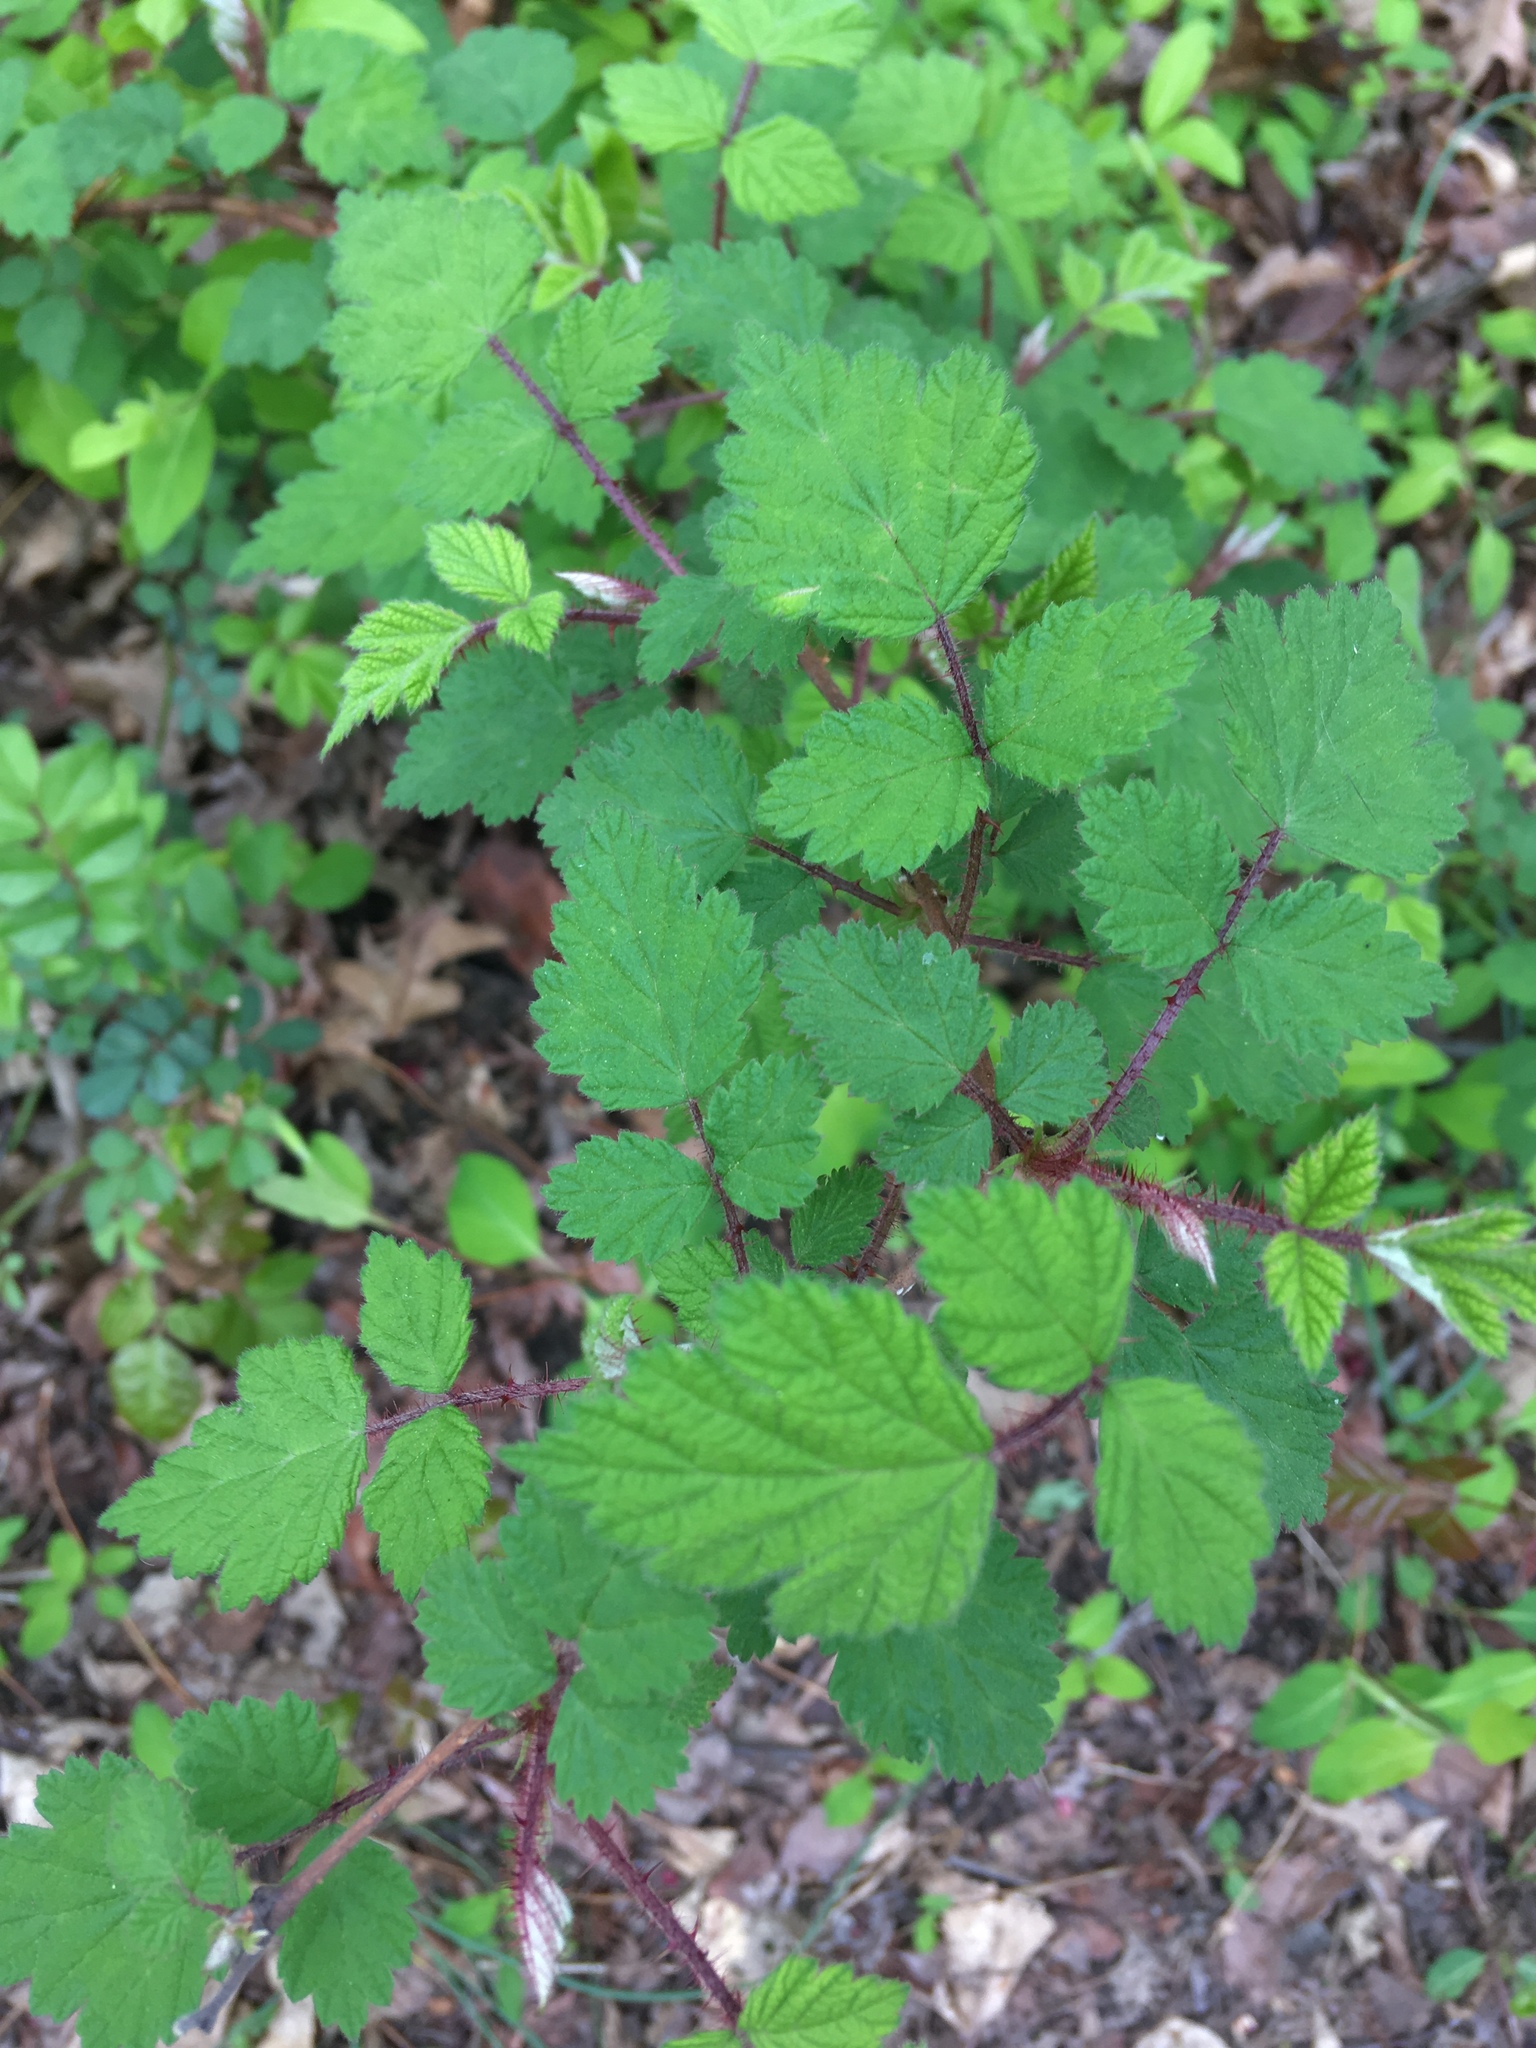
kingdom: Plantae
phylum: Tracheophyta
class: Magnoliopsida
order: Rosales
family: Rosaceae
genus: Rubus
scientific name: Rubus phoenicolasius
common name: Japanese wineberry
